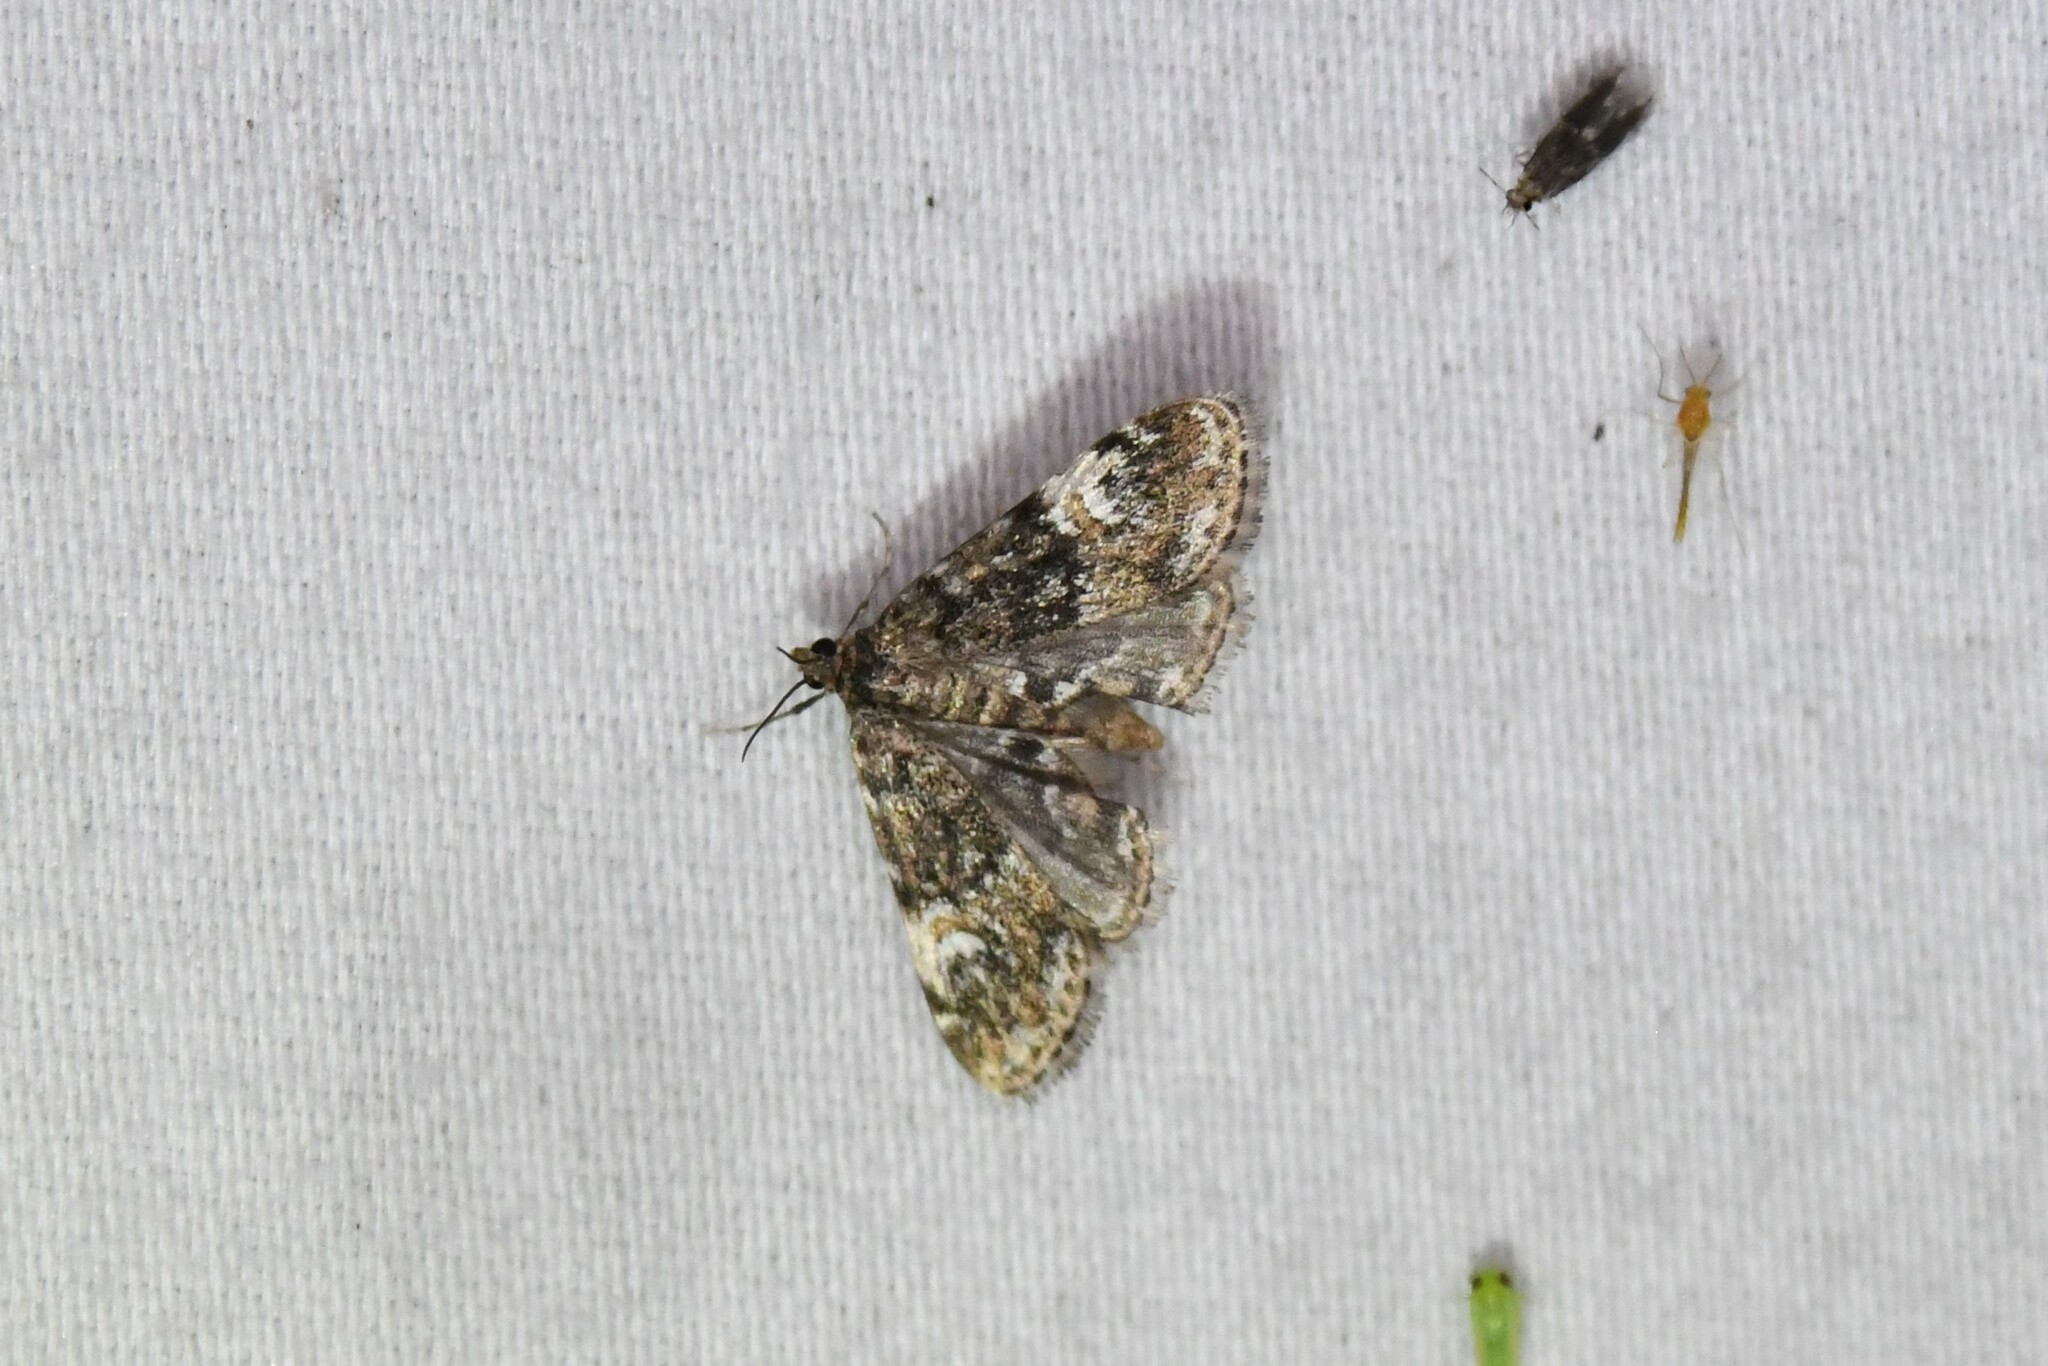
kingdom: Animalia
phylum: Arthropoda
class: Insecta
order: Lepidoptera
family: Crambidae
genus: Elophila
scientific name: Elophila obliteralis
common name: Waterlily leafcutter moth
